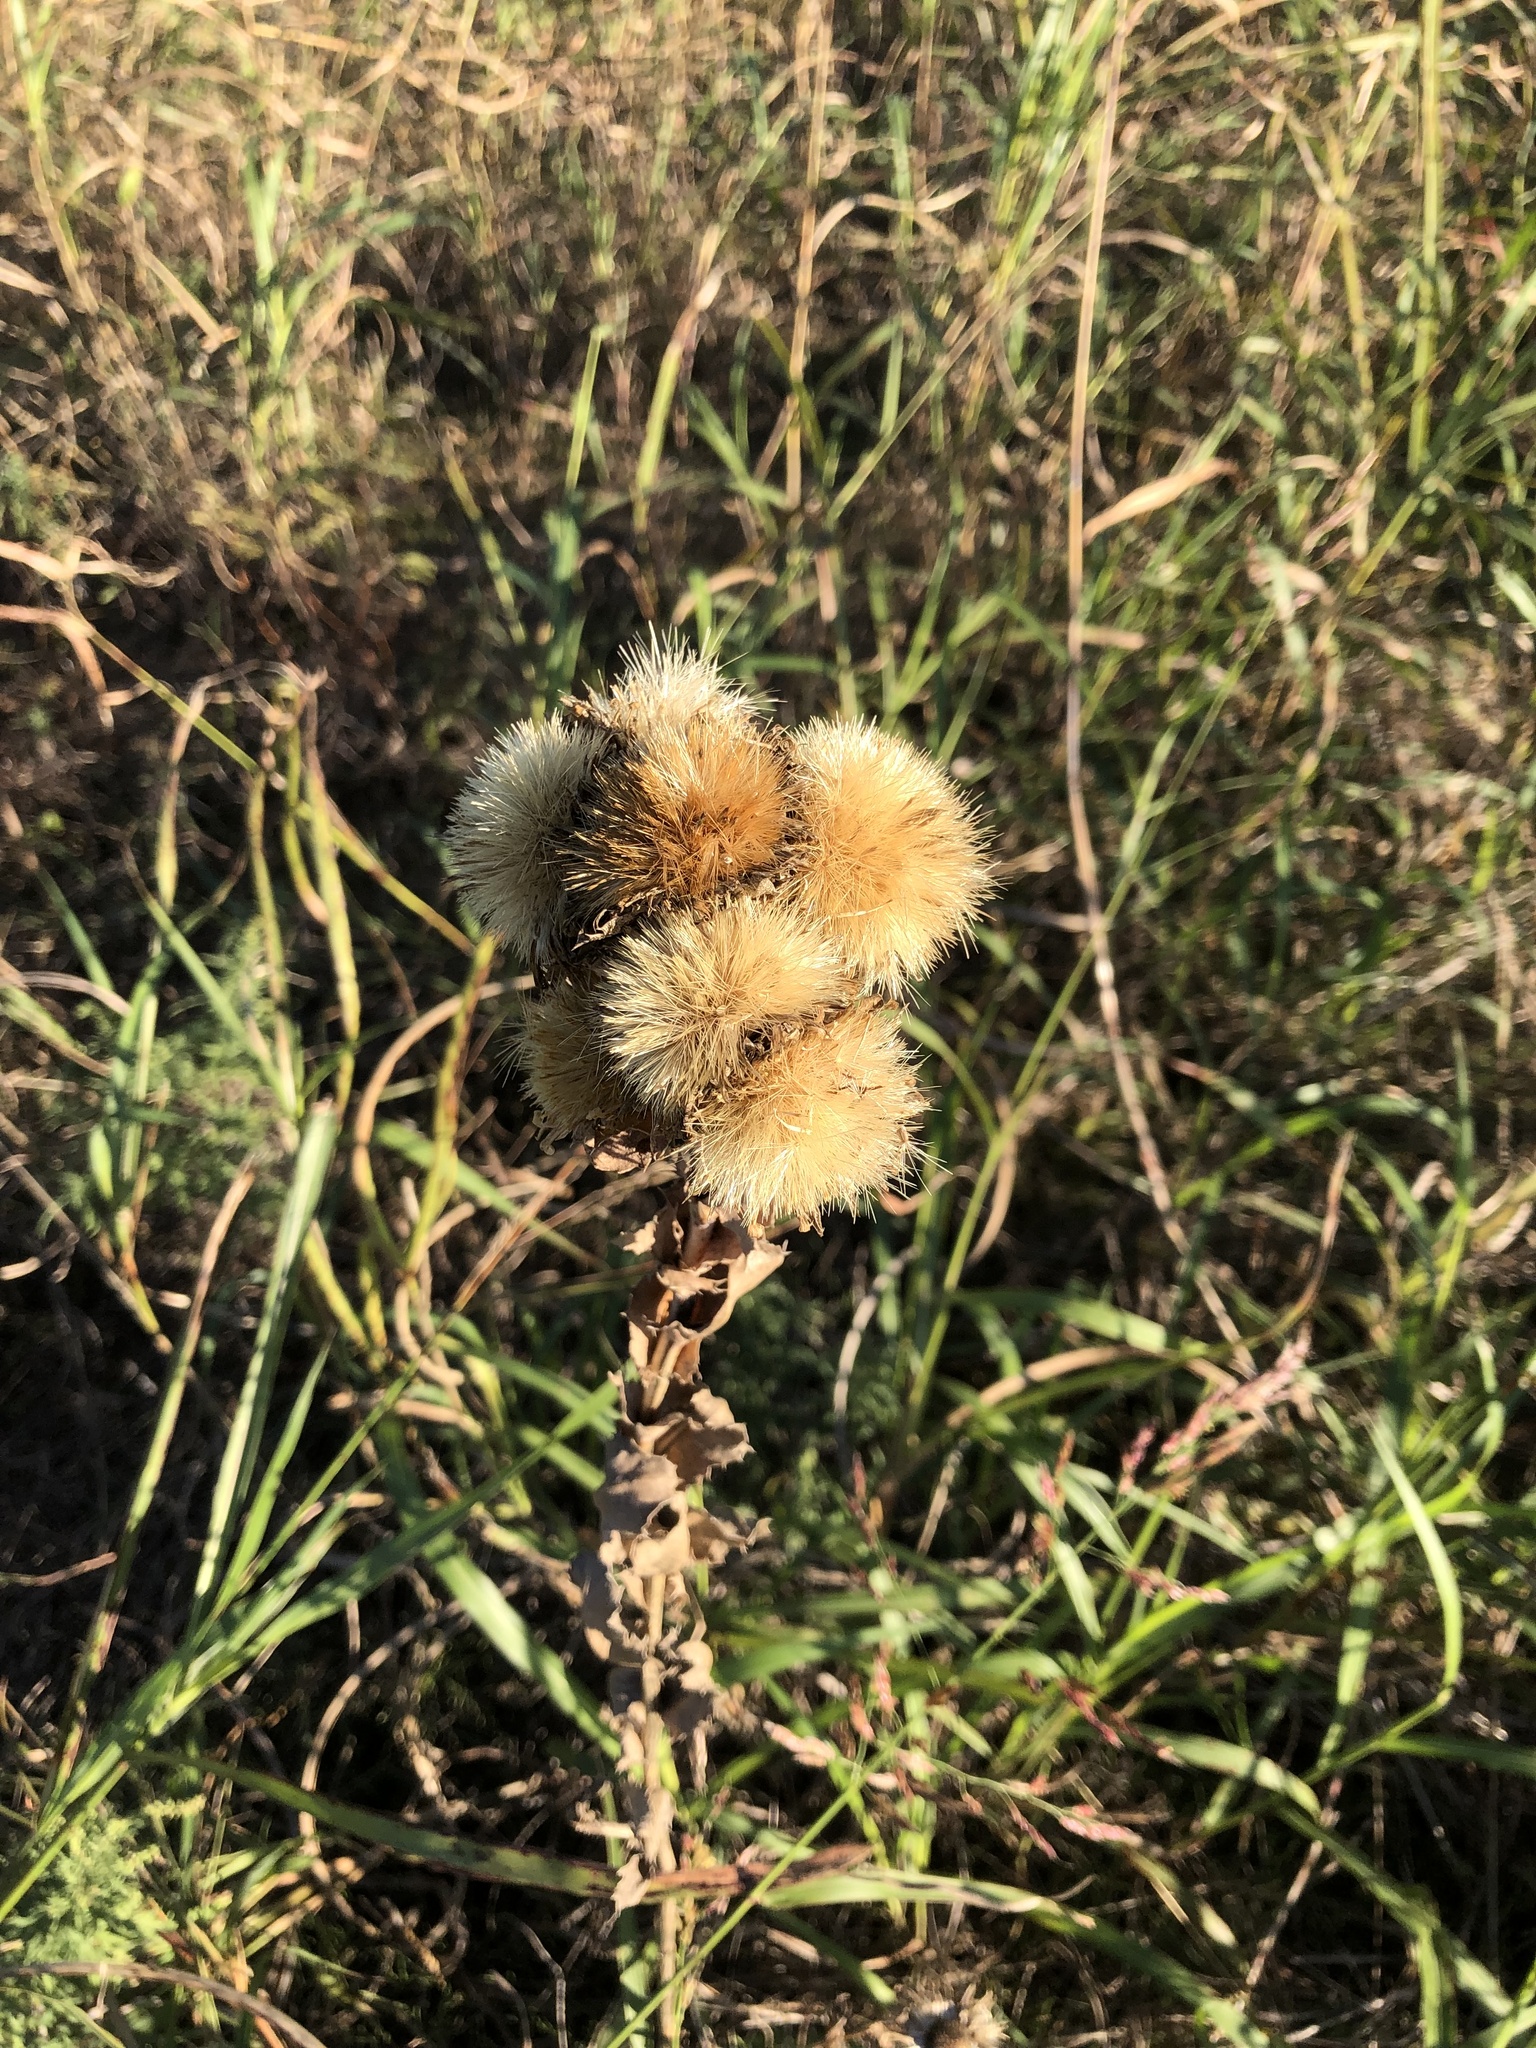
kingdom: Plantae
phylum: Tracheophyta
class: Magnoliopsida
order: Asterales
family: Asteraceae
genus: Grindelia
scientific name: Grindelia ciliata
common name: Goldenweed
